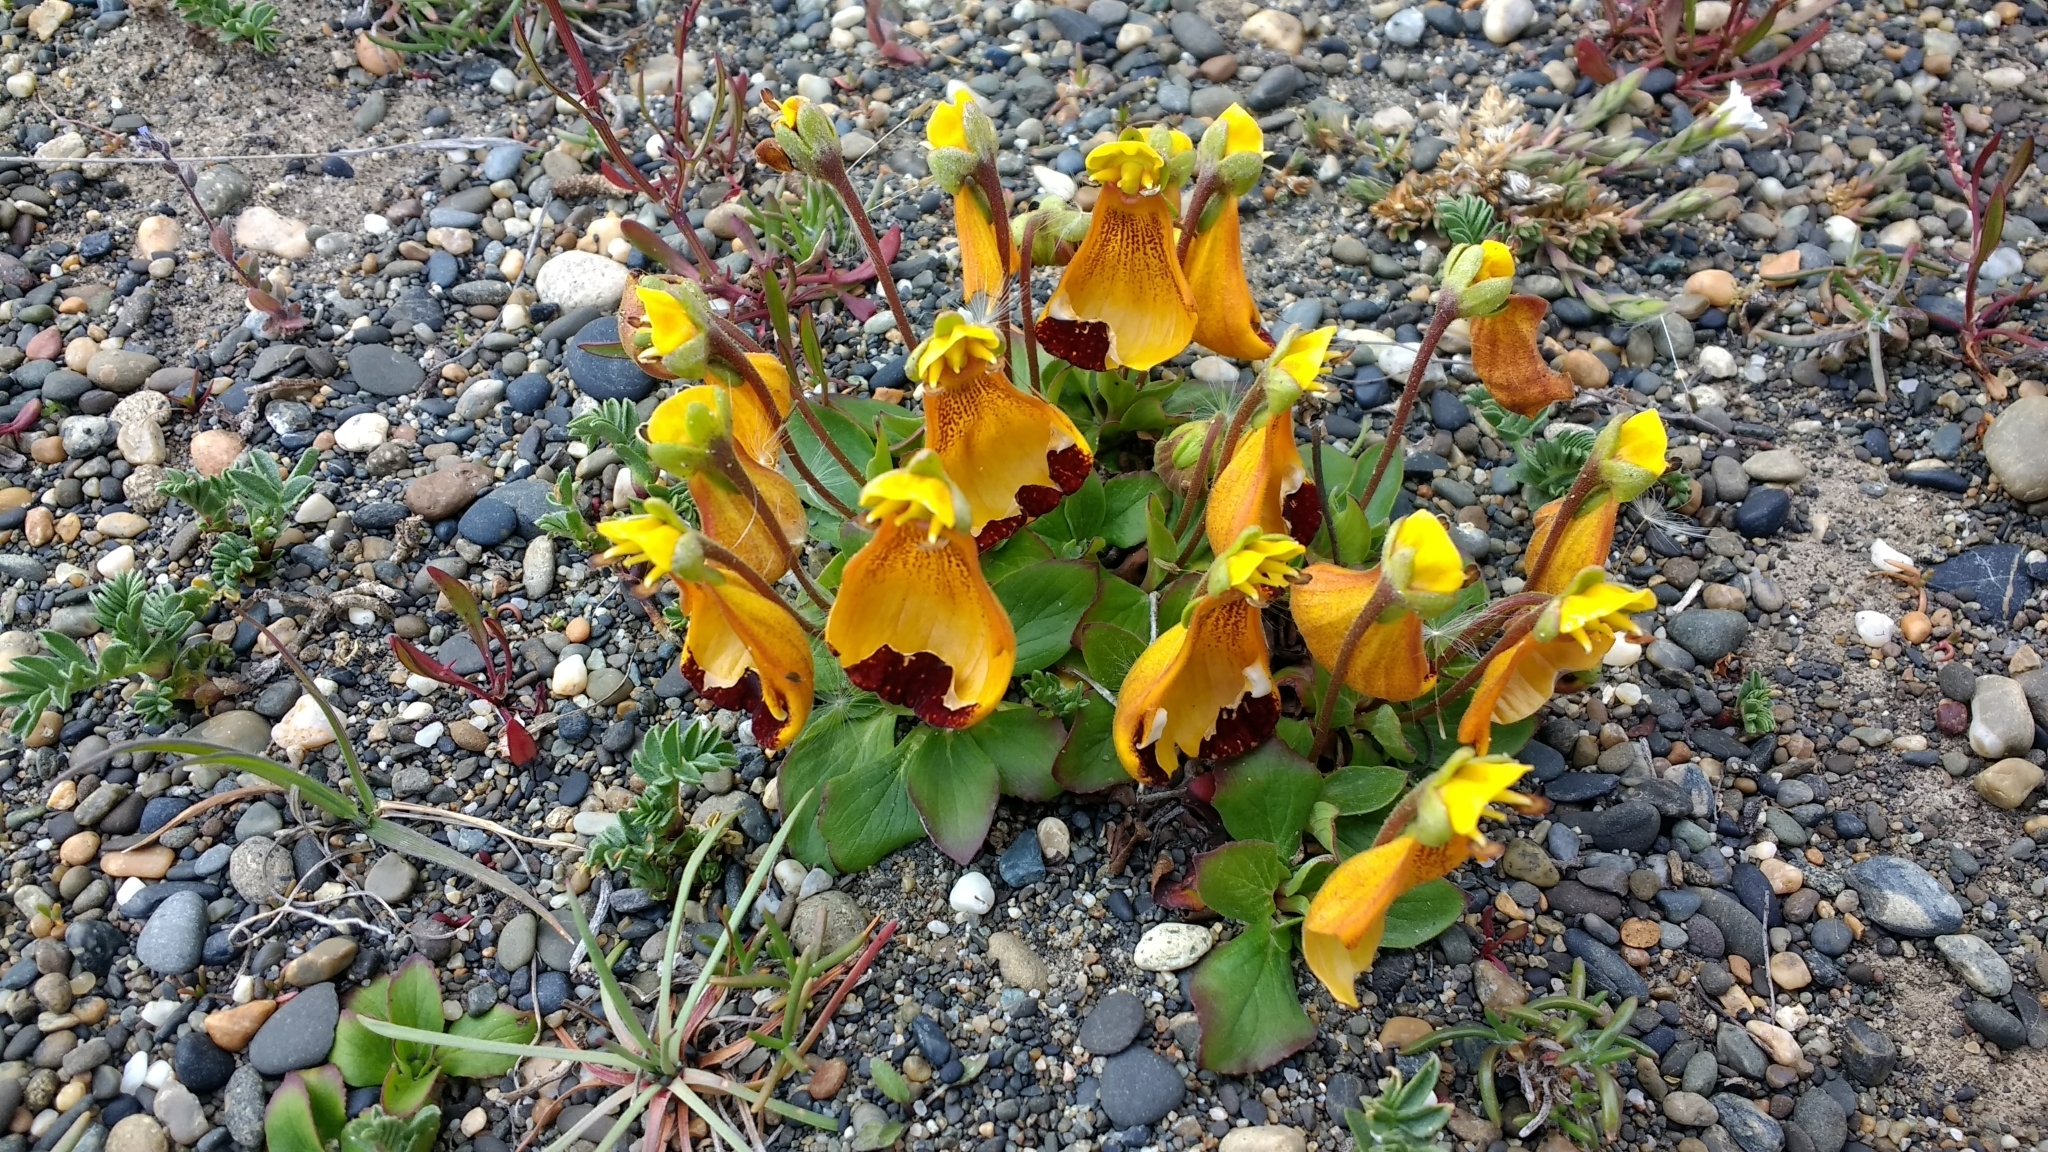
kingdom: Plantae
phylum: Tracheophyta
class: Magnoliopsida
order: Lamiales
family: Calceolariaceae
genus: Calceolaria
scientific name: Calceolaria uniflora
